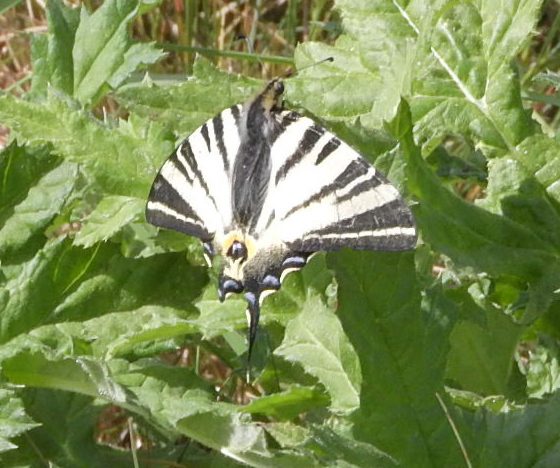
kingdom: Animalia
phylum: Arthropoda
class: Insecta
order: Lepidoptera
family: Papilionidae
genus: Iphiclides
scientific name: Iphiclides podalirius
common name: Scarce swallowtail
